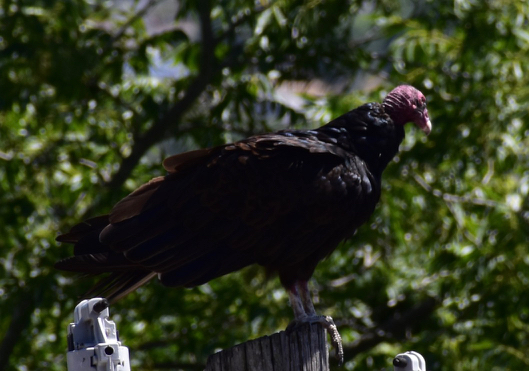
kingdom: Animalia
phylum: Chordata
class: Aves
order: Accipitriformes
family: Cathartidae
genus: Cathartes
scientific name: Cathartes aura
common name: Turkey vulture
